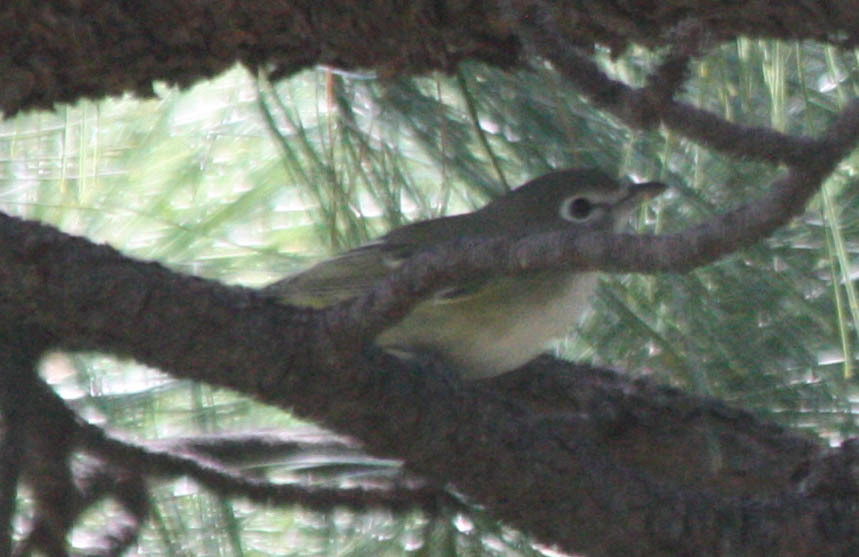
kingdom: Animalia
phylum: Chordata
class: Aves
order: Passeriformes
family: Vireonidae
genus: Vireo
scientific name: Vireo cassinii
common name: Cassin's vireo
